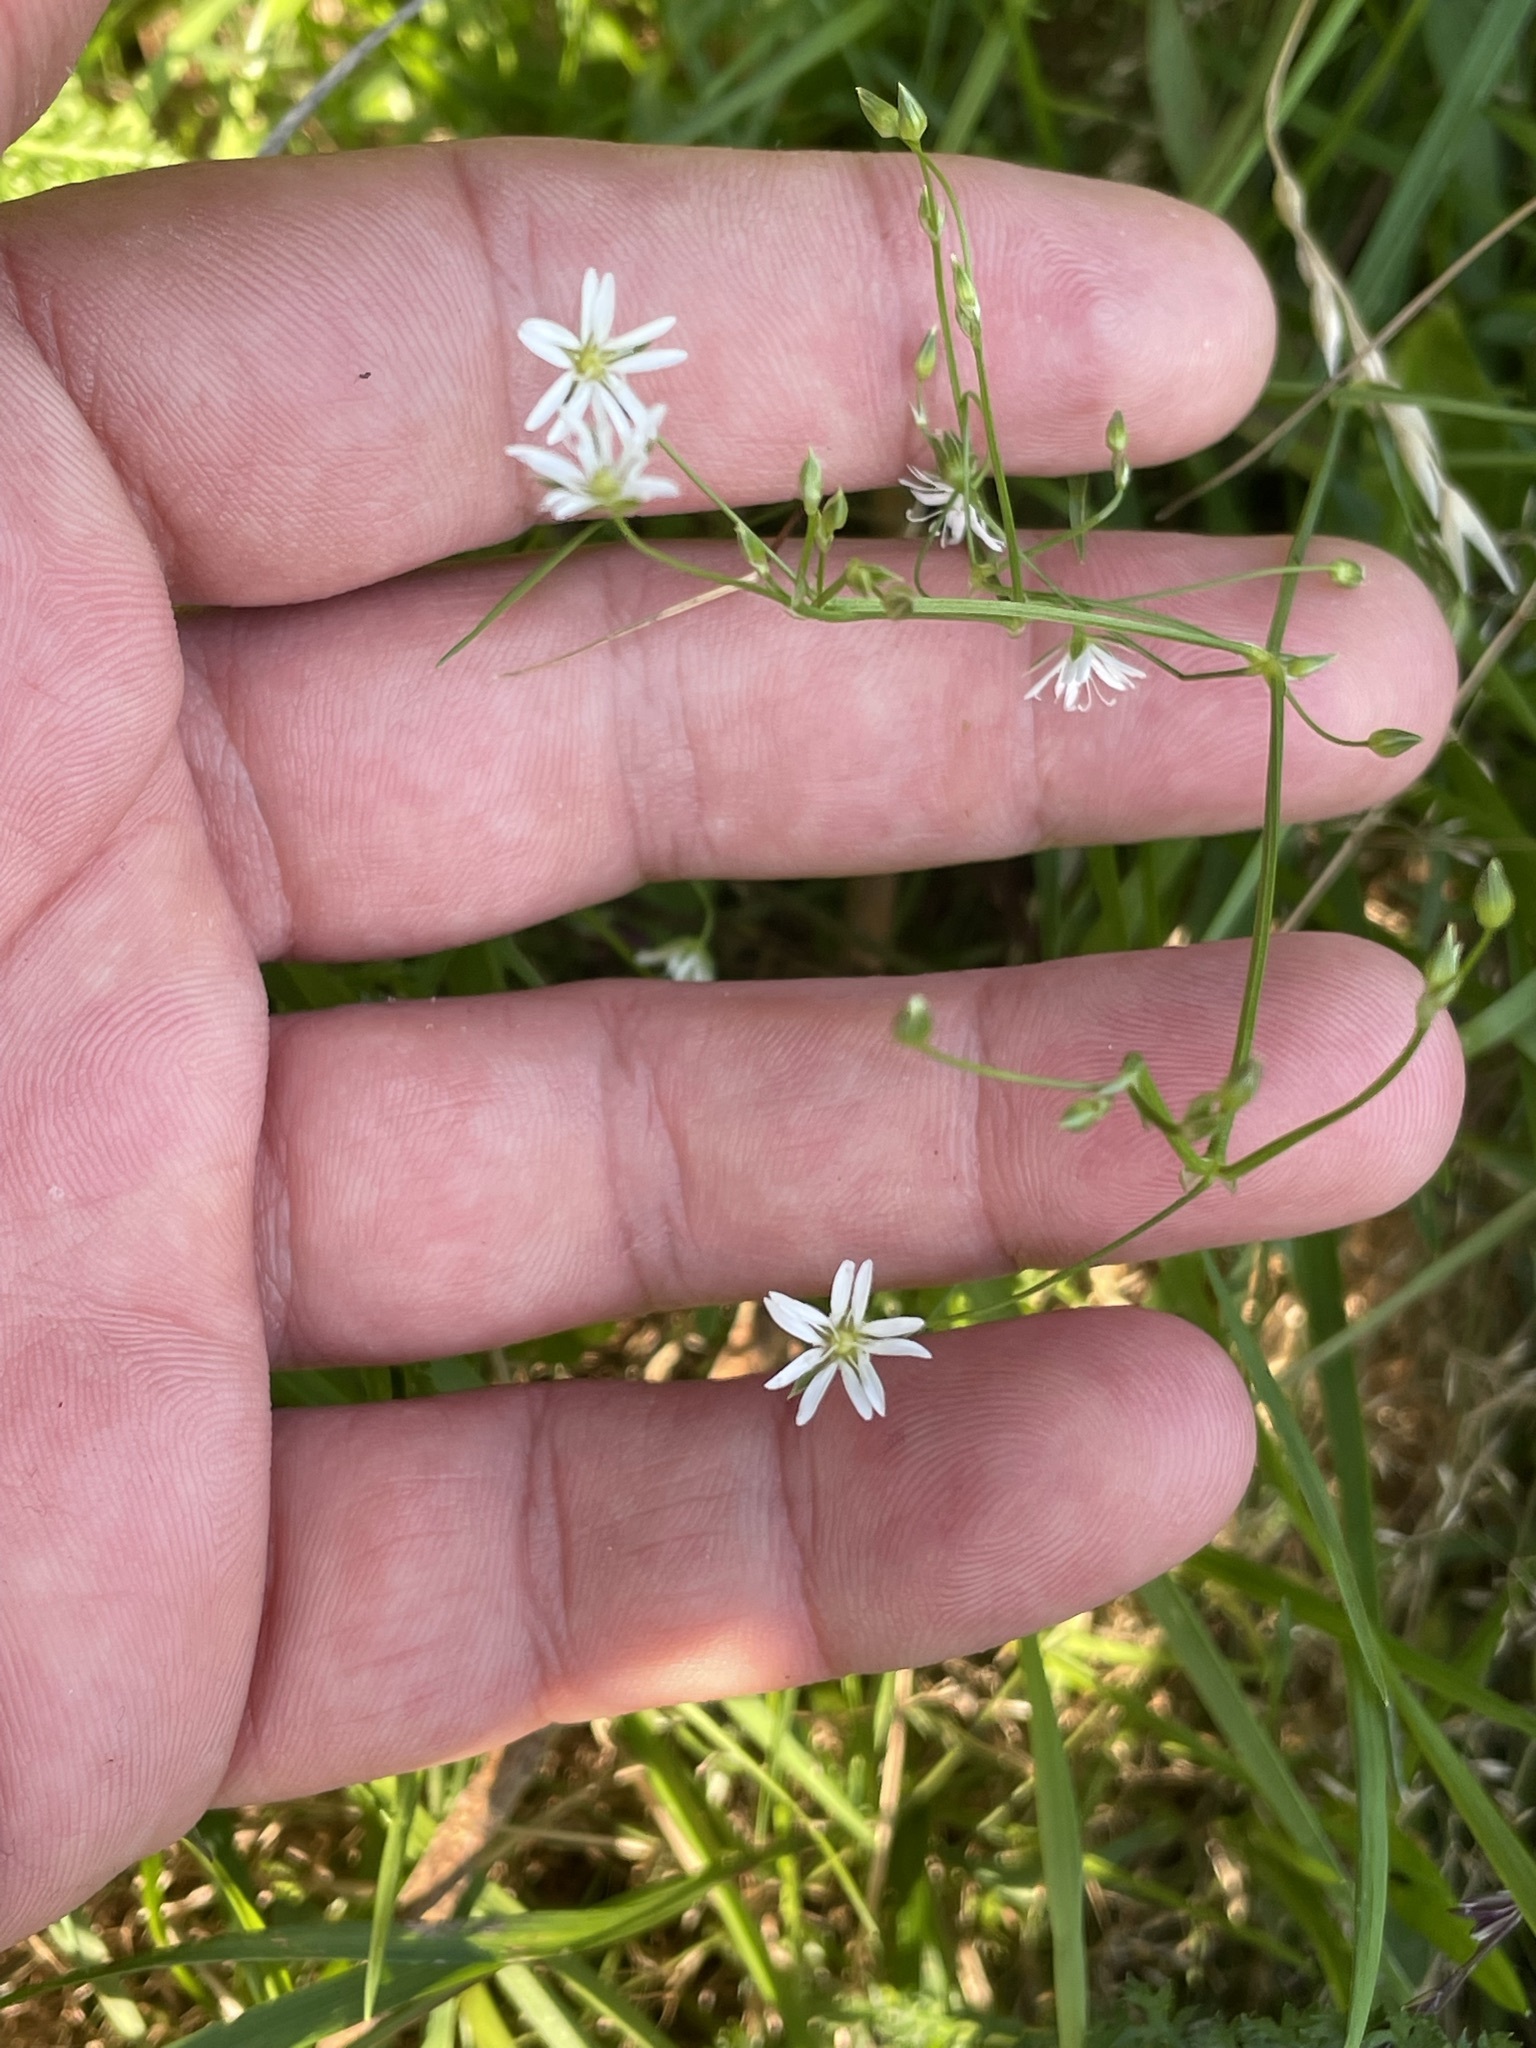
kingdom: Plantae
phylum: Tracheophyta
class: Magnoliopsida
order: Caryophyllales
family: Caryophyllaceae
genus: Stellaria
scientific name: Stellaria graminea
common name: Grass-like starwort
